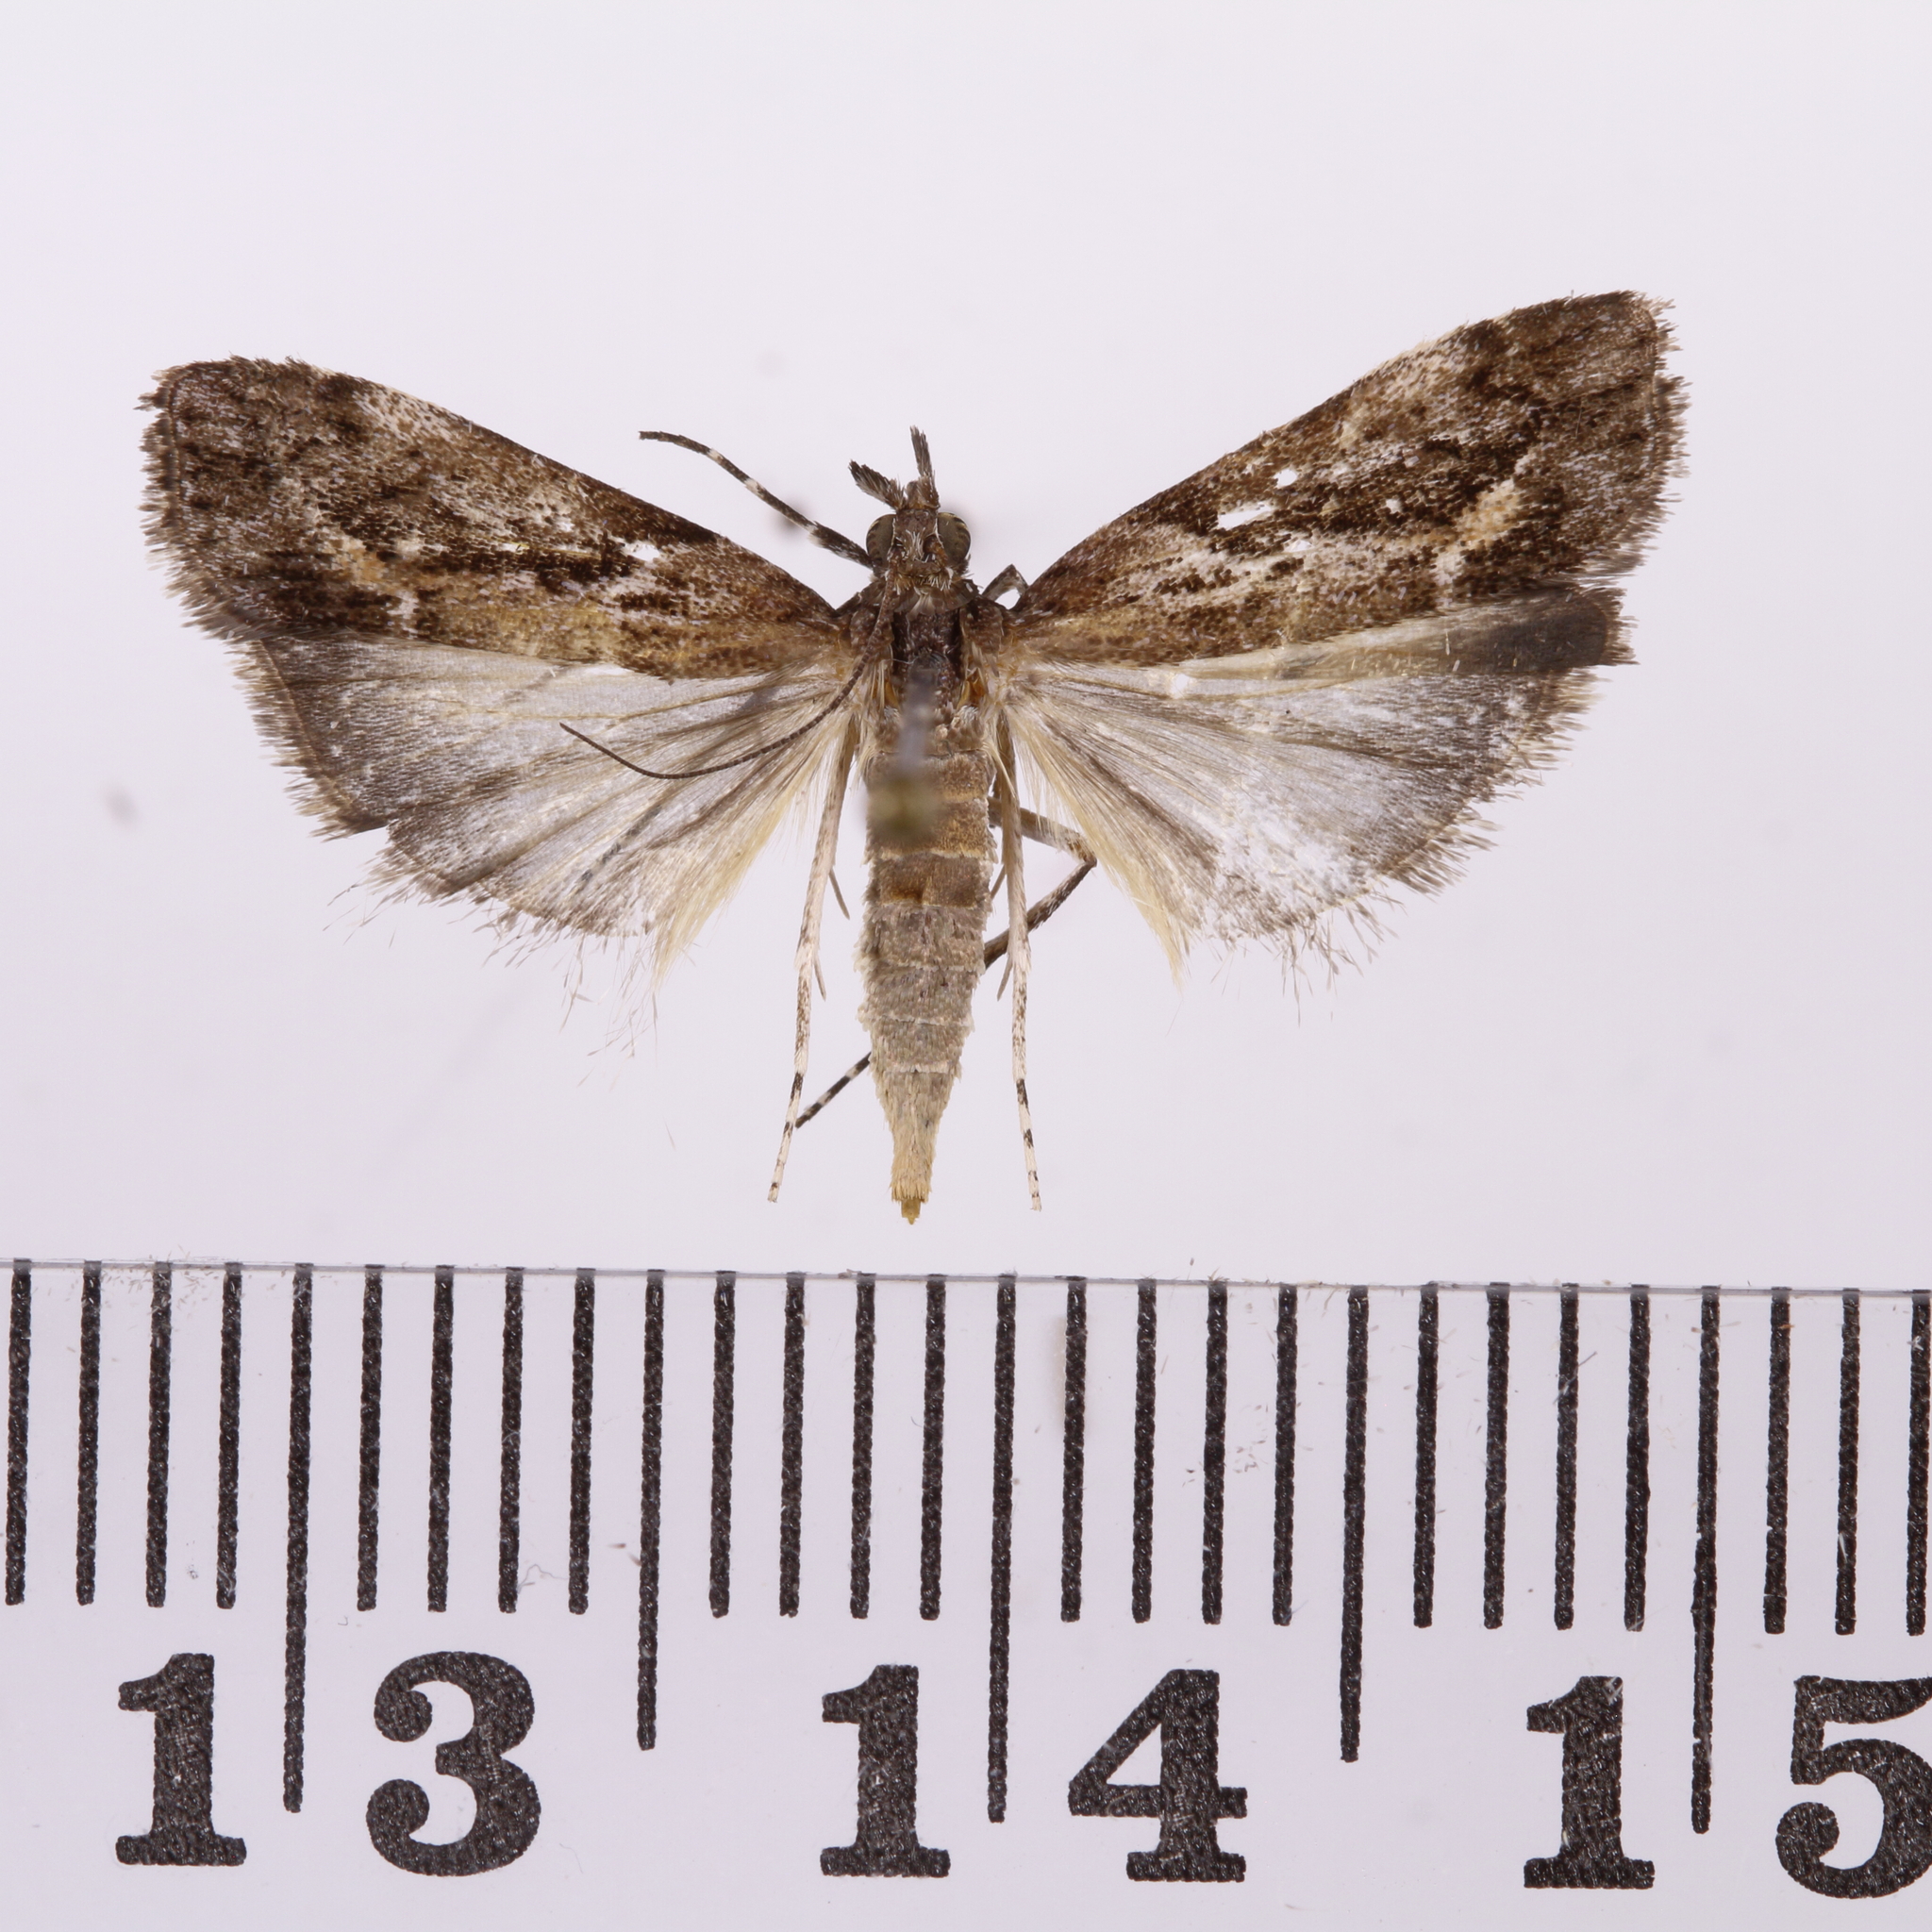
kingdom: Animalia
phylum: Arthropoda
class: Insecta
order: Lepidoptera
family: Crambidae
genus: Eudonia
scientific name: Eudonia submarginalis
